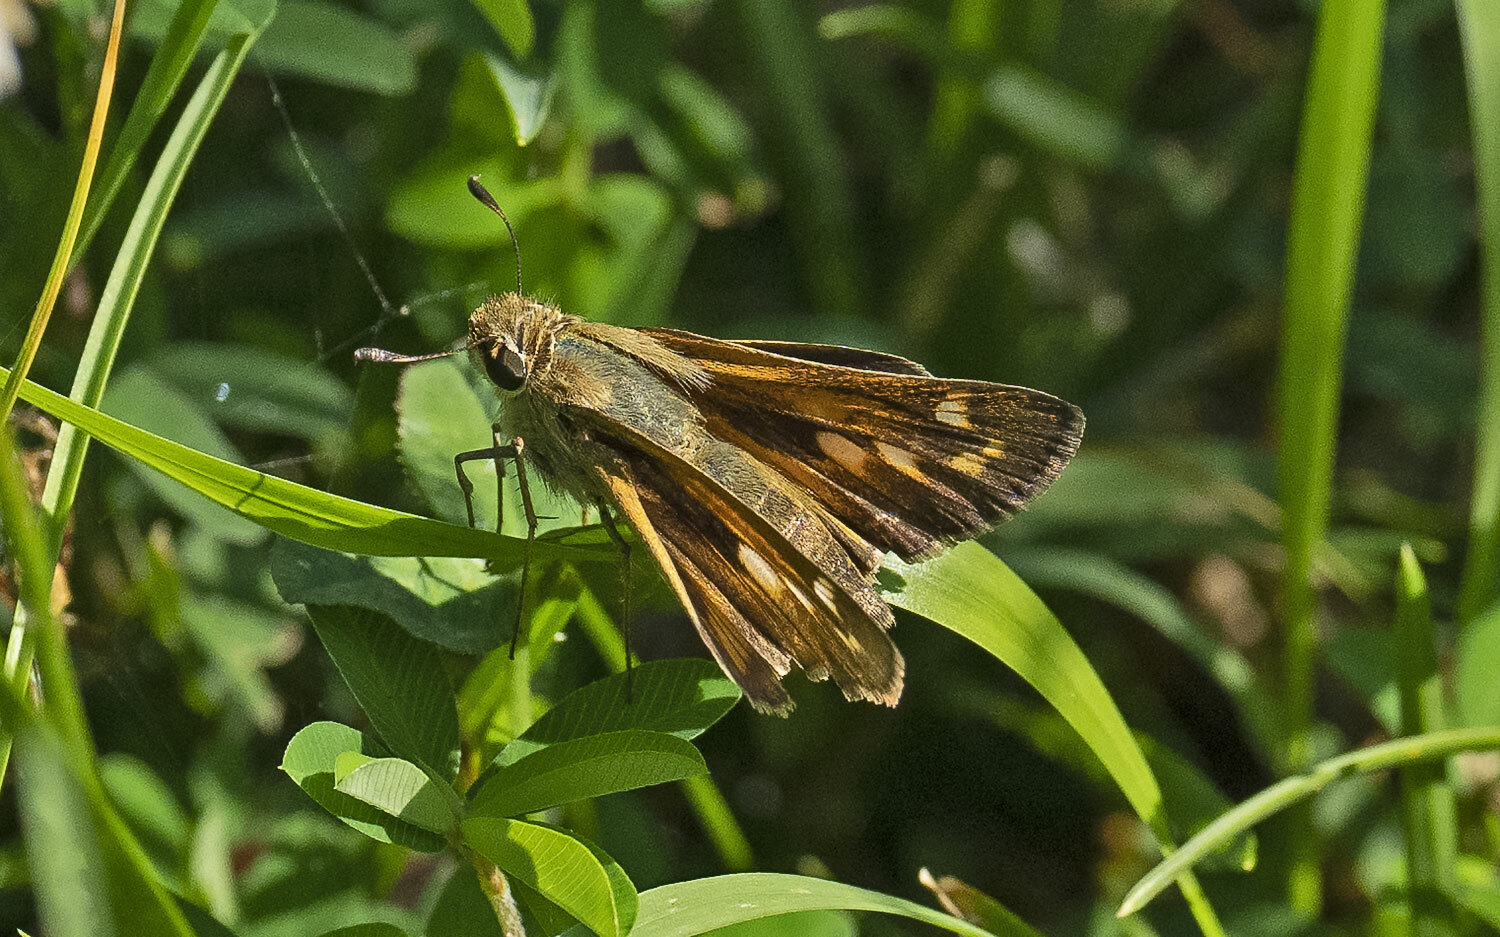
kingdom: Animalia
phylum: Arthropoda
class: Insecta
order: Lepidoptera
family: Hesperiidae
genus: Atalopedes
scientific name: Atalopedes
